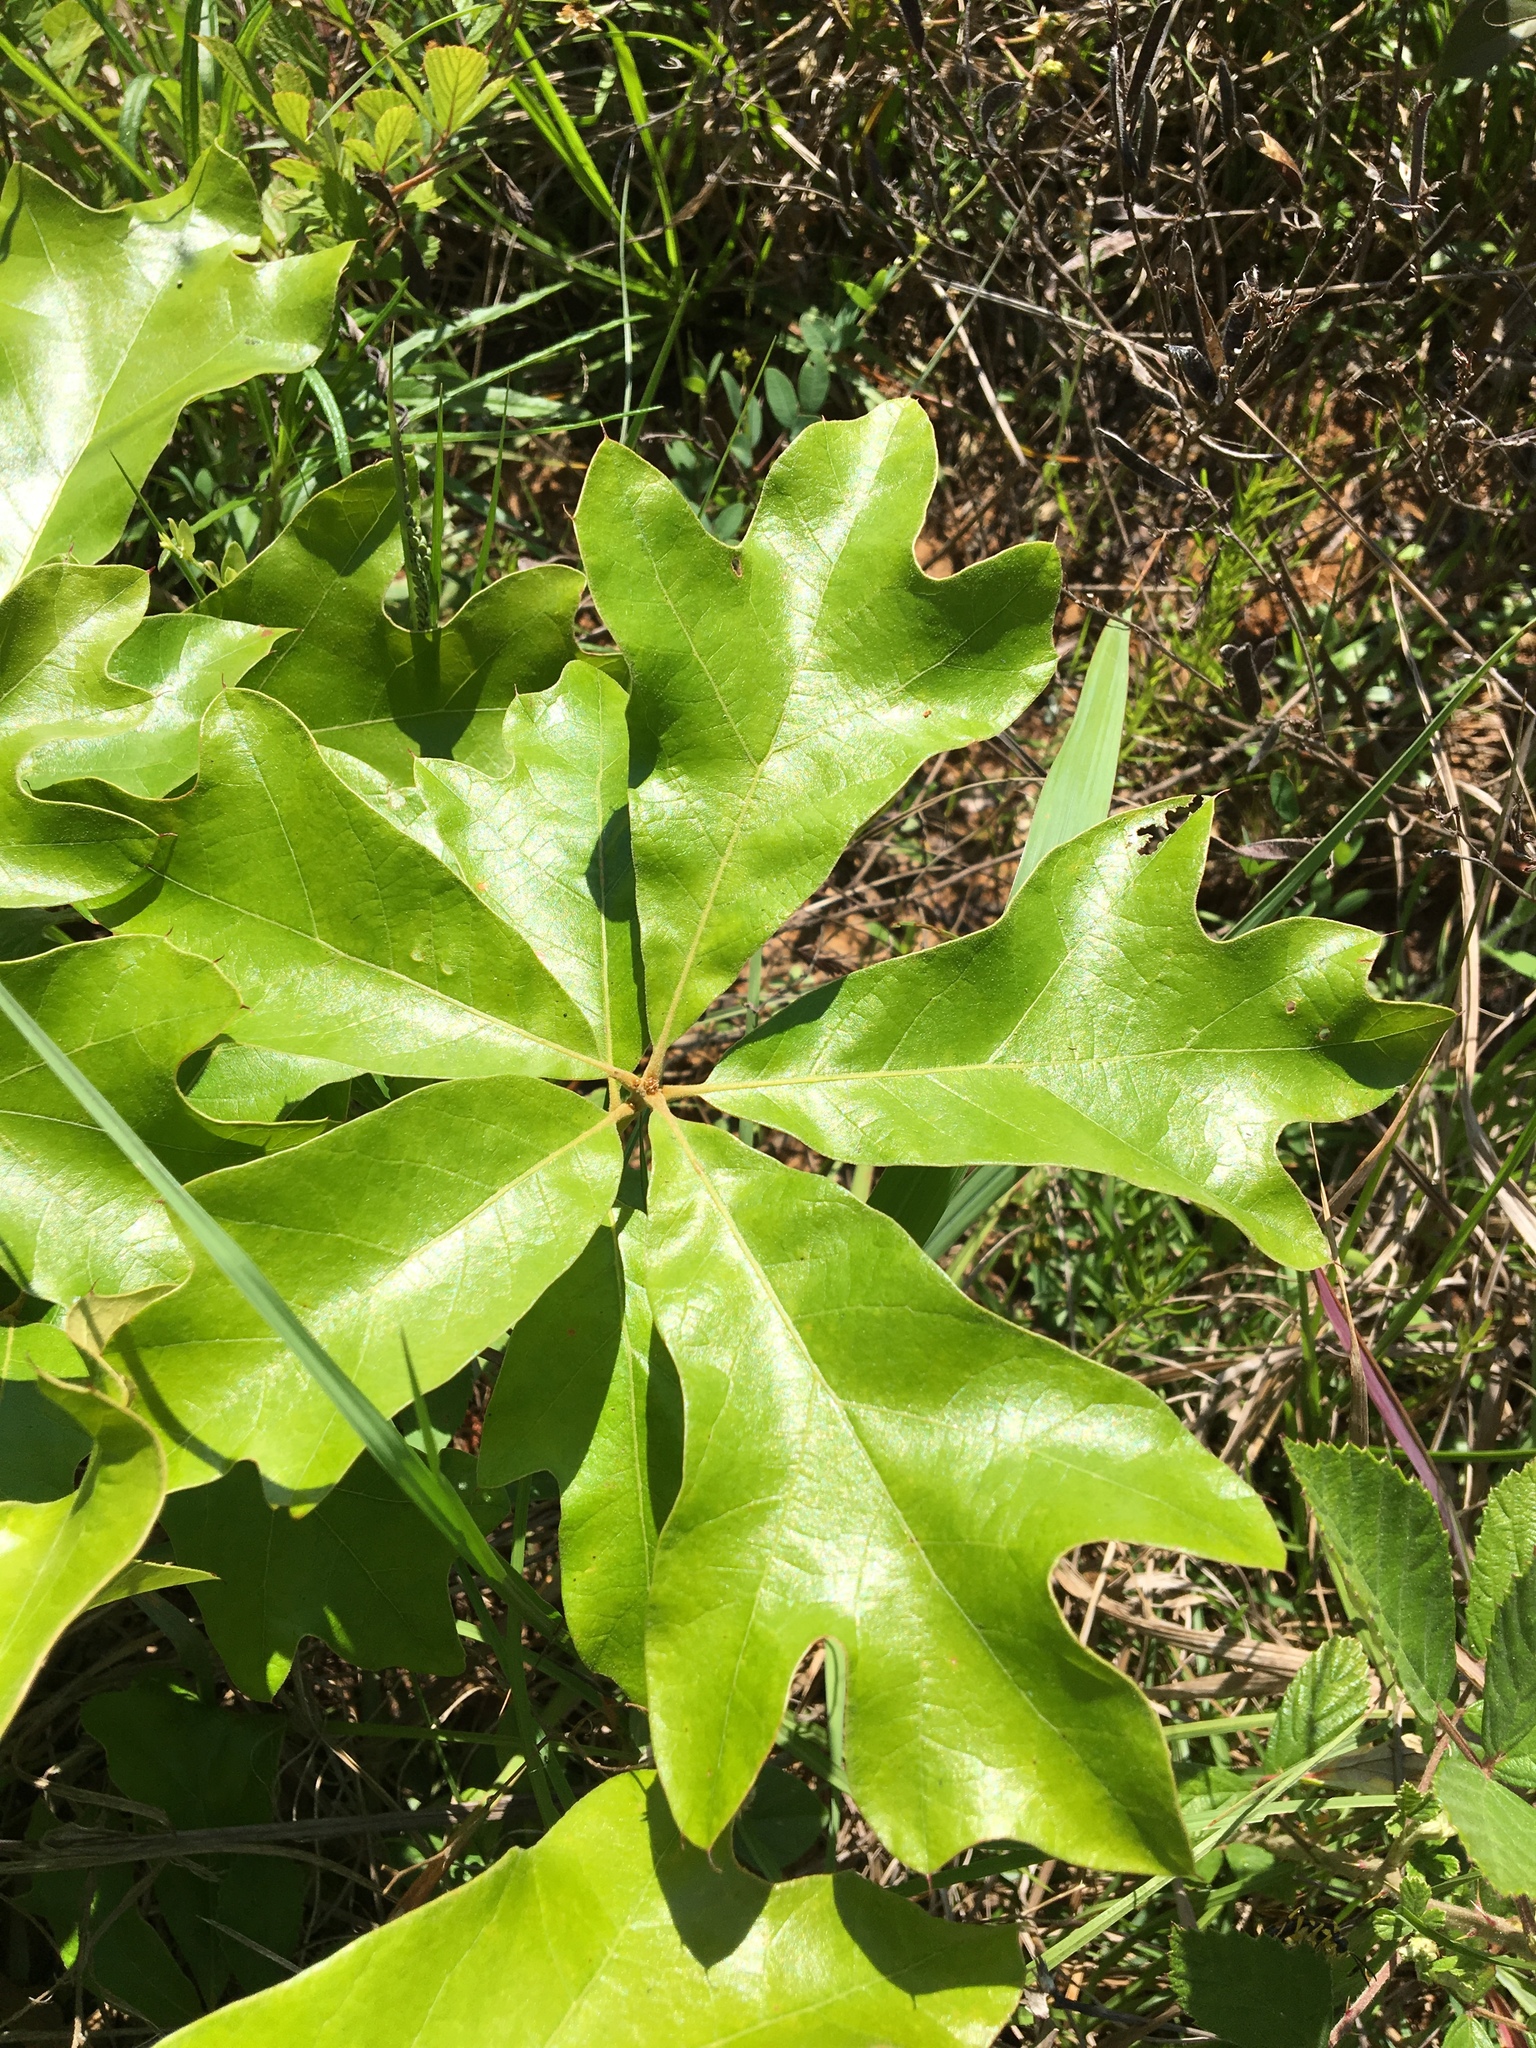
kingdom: Plantae
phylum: Tracheophyta
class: Magnoliopsida
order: Fagales
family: Fagaceae
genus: Quercus
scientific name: Quercus falcata
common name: Southern red oak
